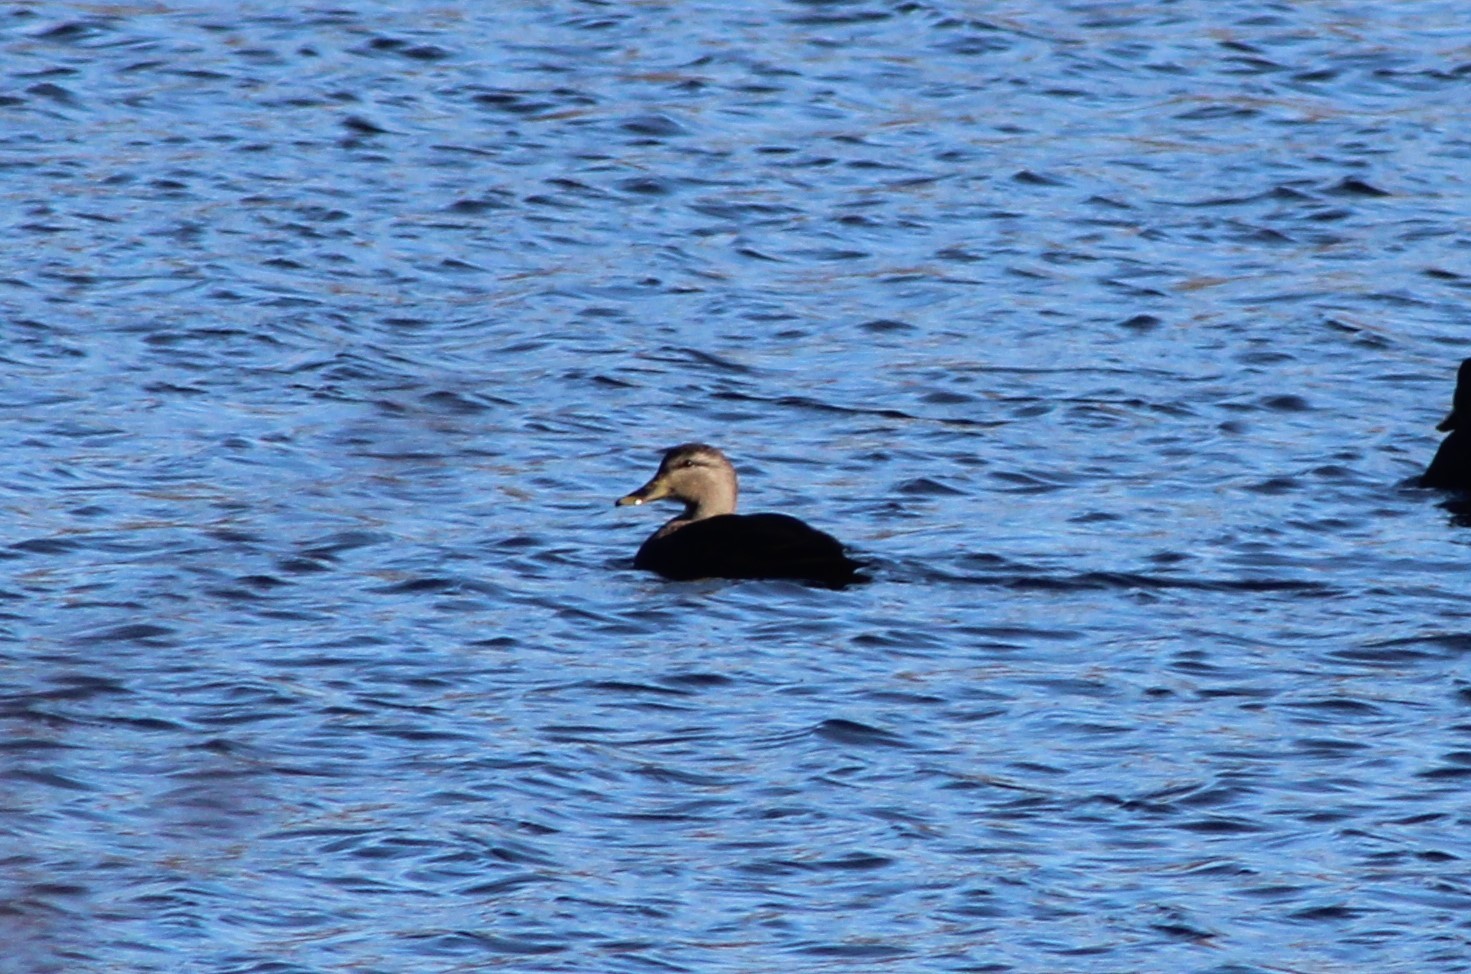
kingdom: Animalia
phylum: Chordata
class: Aves
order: Anseriformes
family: Anatidae
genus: Anas
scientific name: Anas rubripes
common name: American black duck
